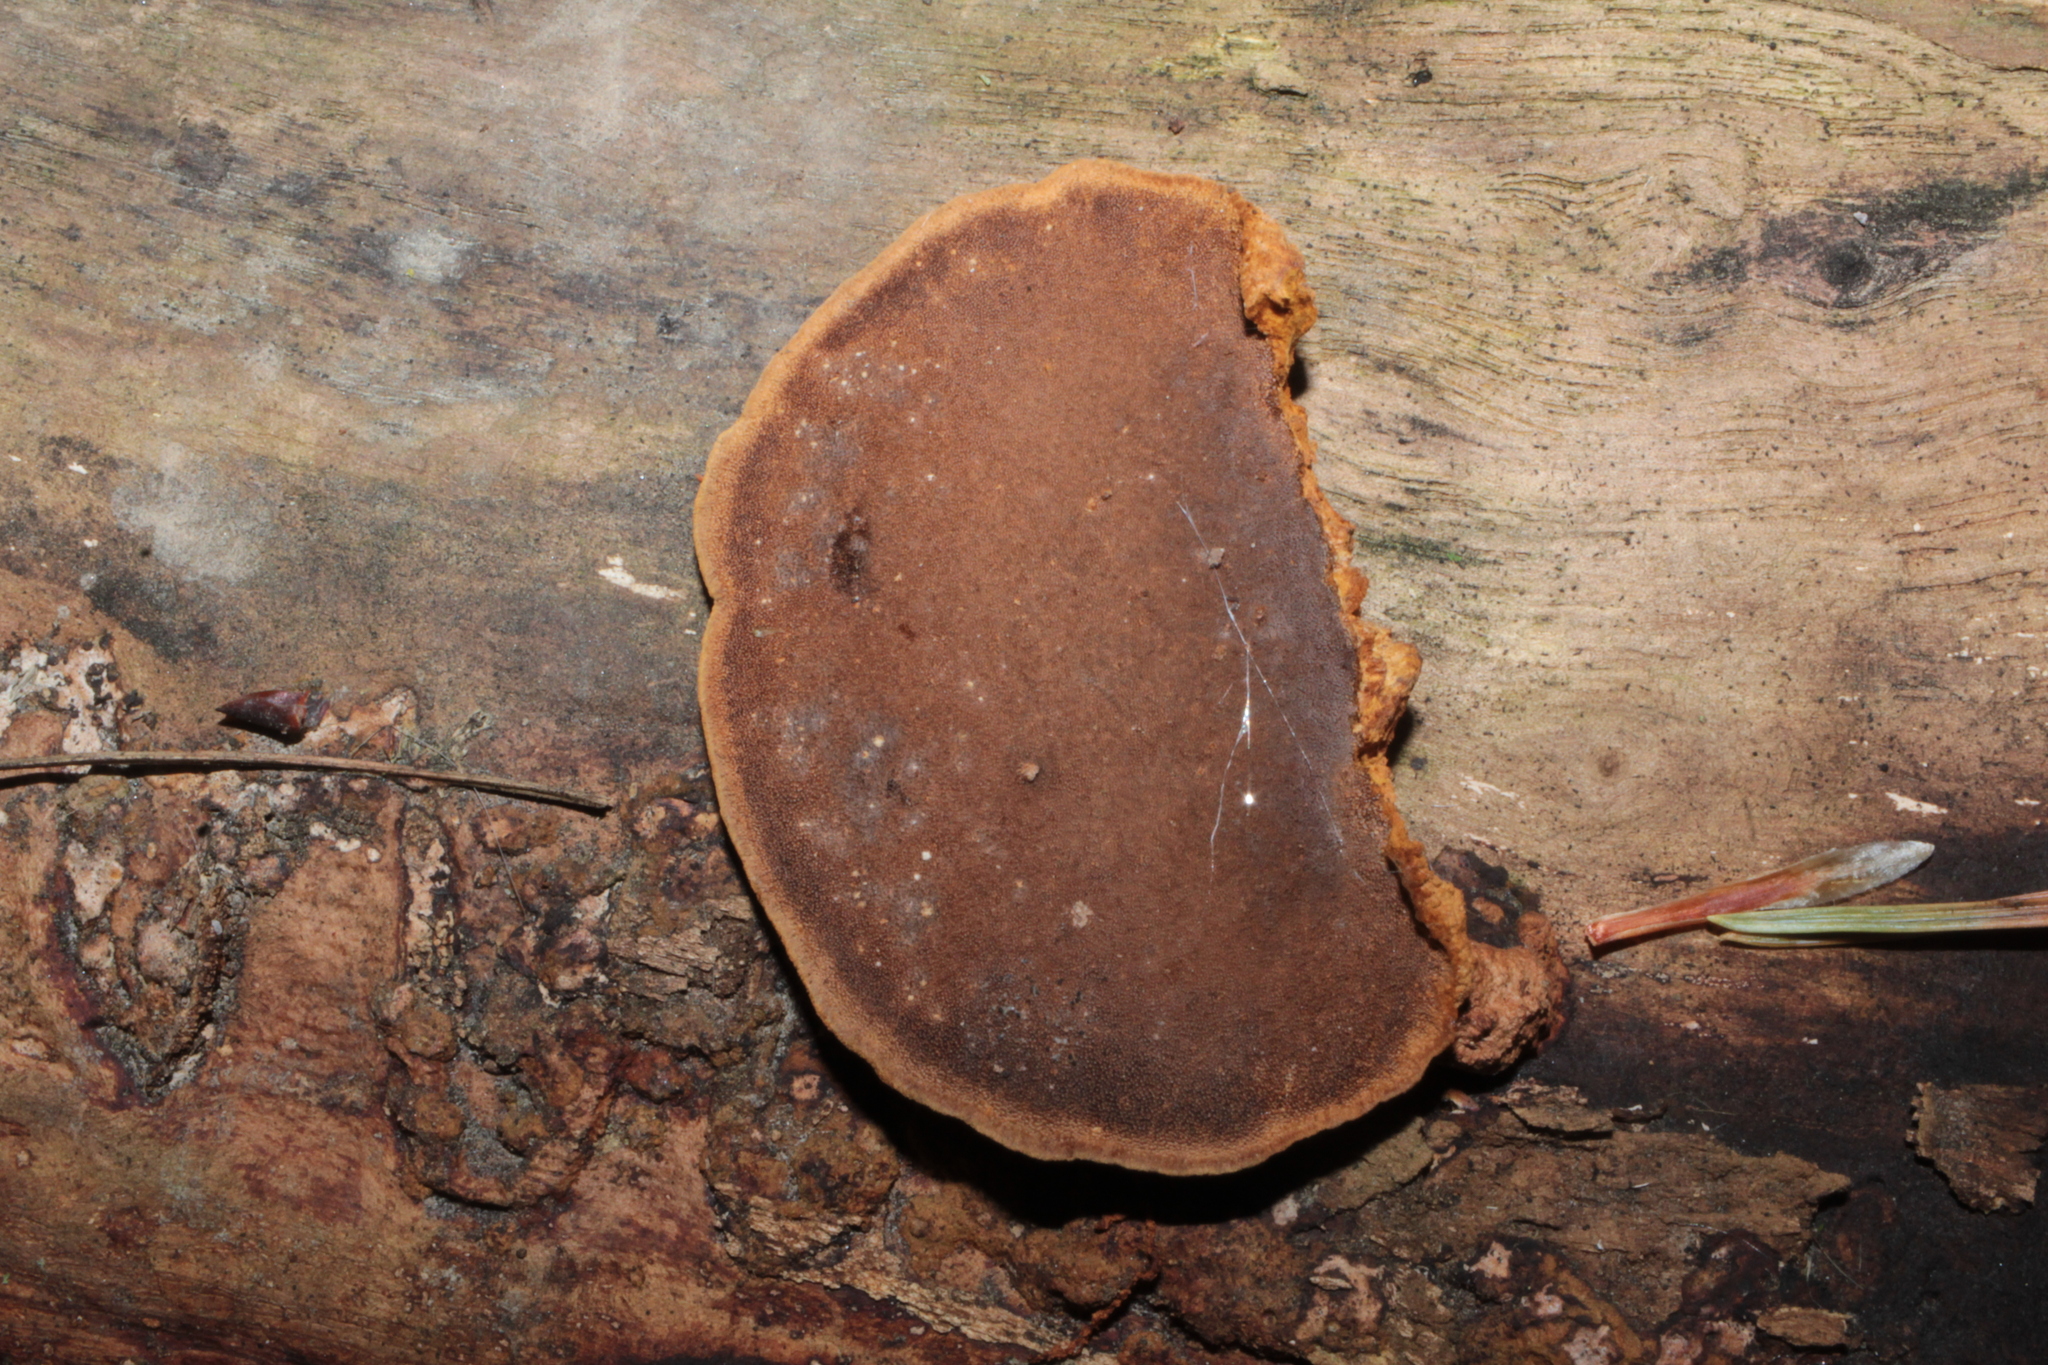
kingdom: Fungi
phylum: Basidiomycota
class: Agaricomycetes
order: Hymenochaetales
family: Hymenochaetaceae
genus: Phellinus
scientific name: Phellinus gilvus
